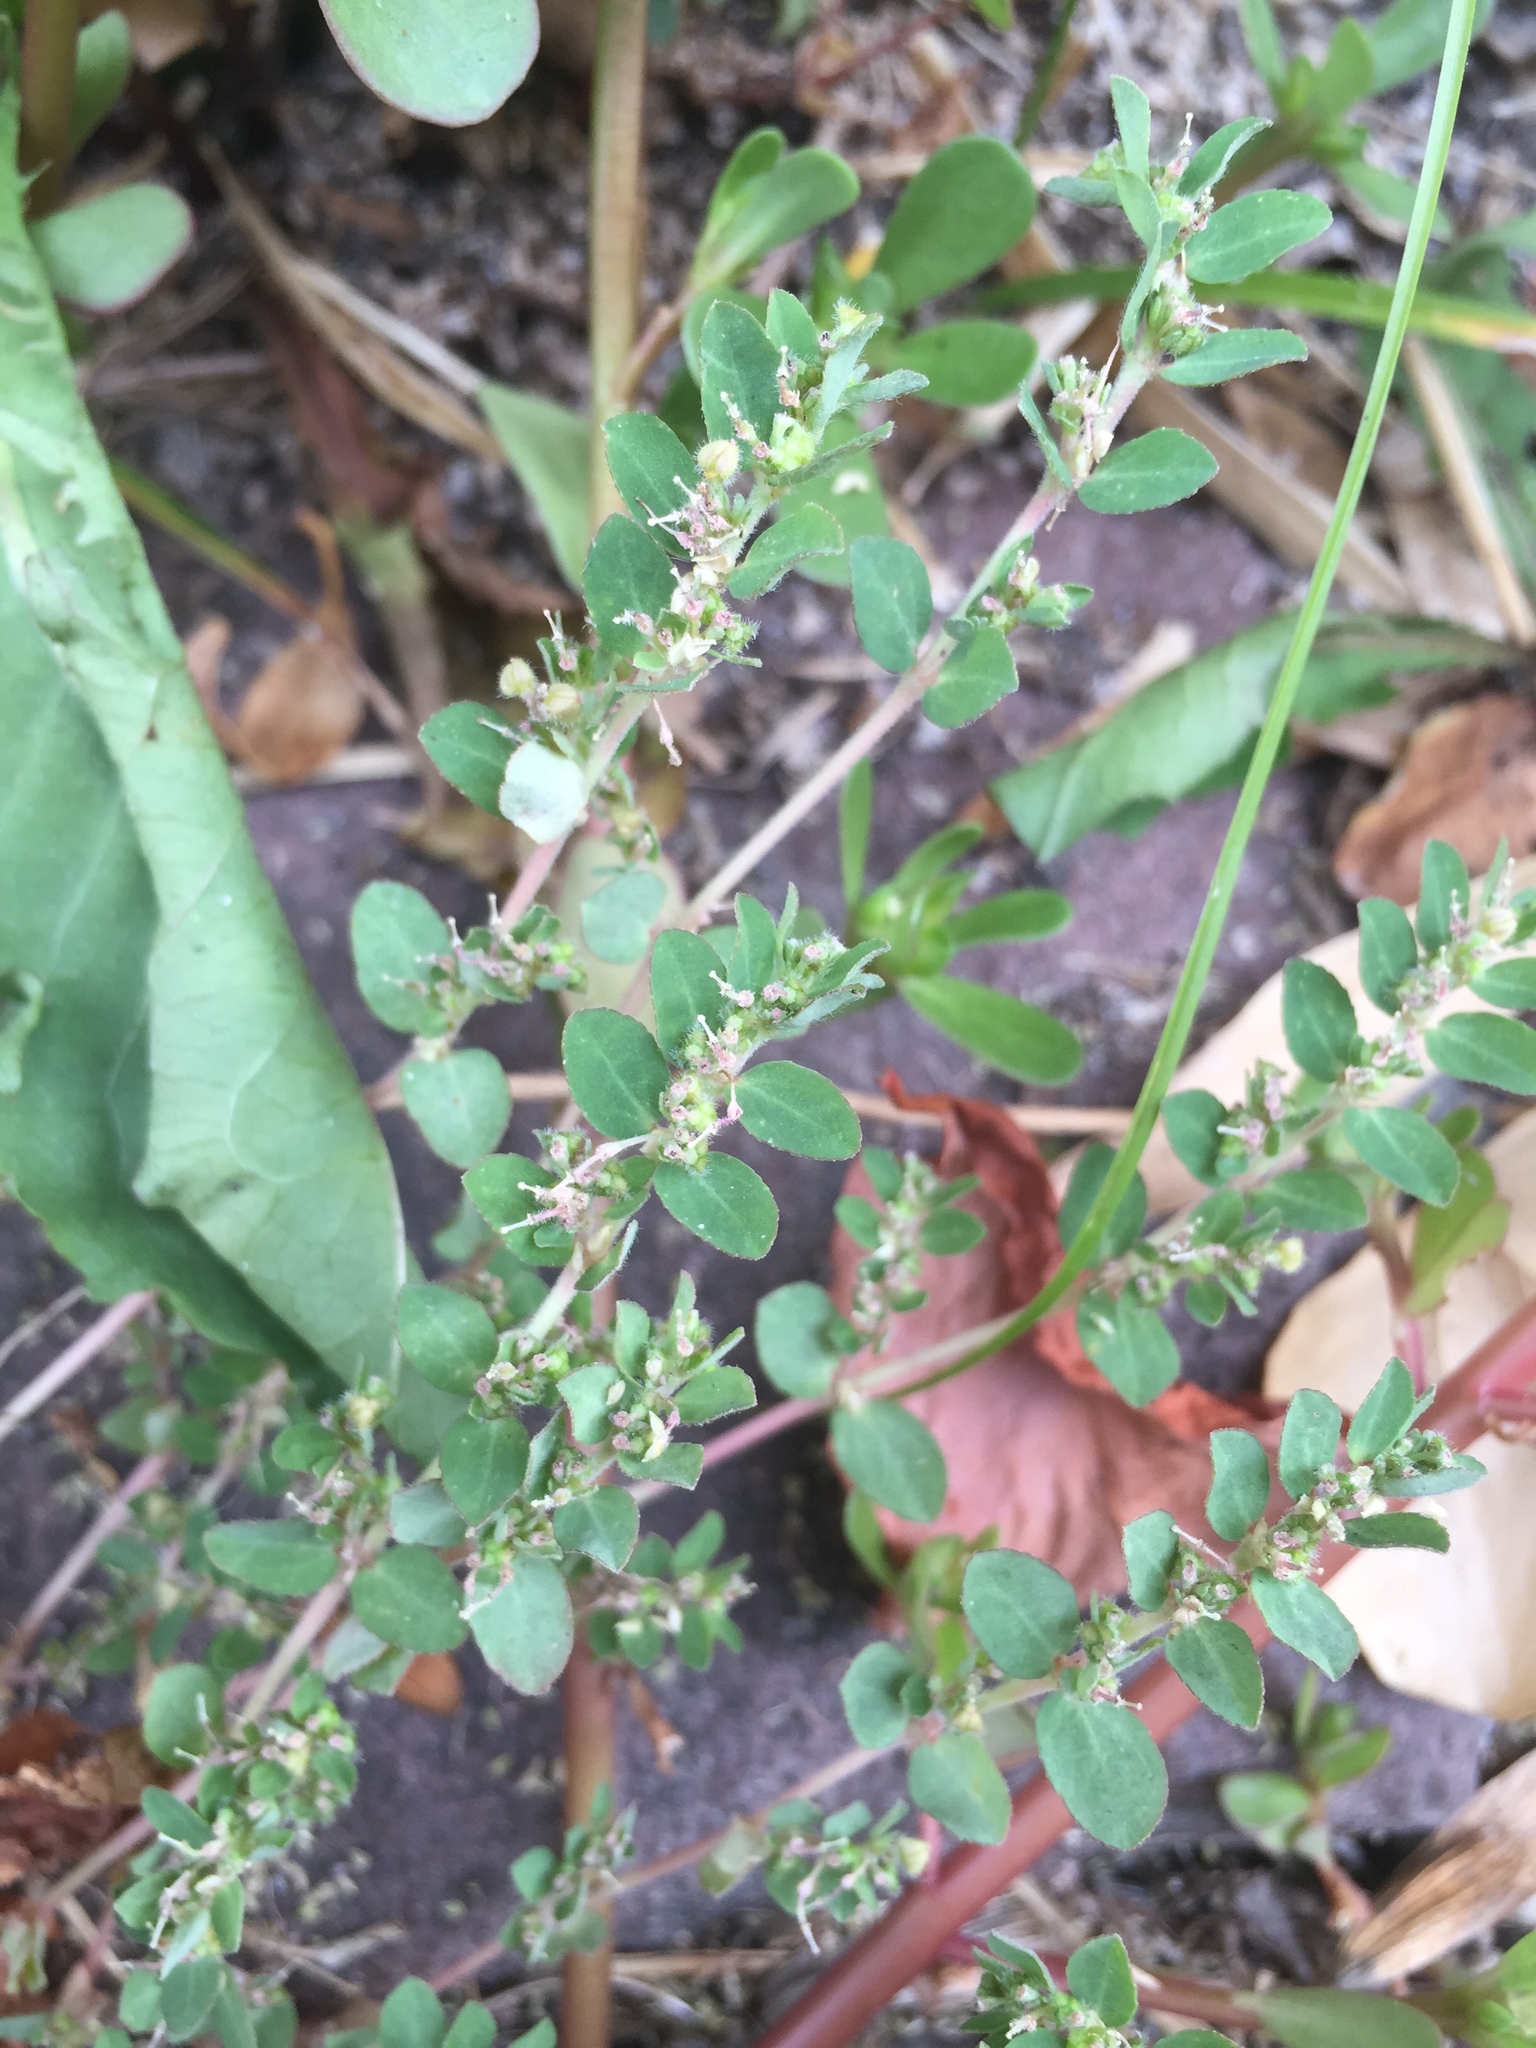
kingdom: Plantae
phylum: Tracheophyta
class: Magnoliopsida
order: Malpighiales
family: Euphorbiaceae
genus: Euphorbia
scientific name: Euphorbia prostrata
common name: Prostrate sandmat
